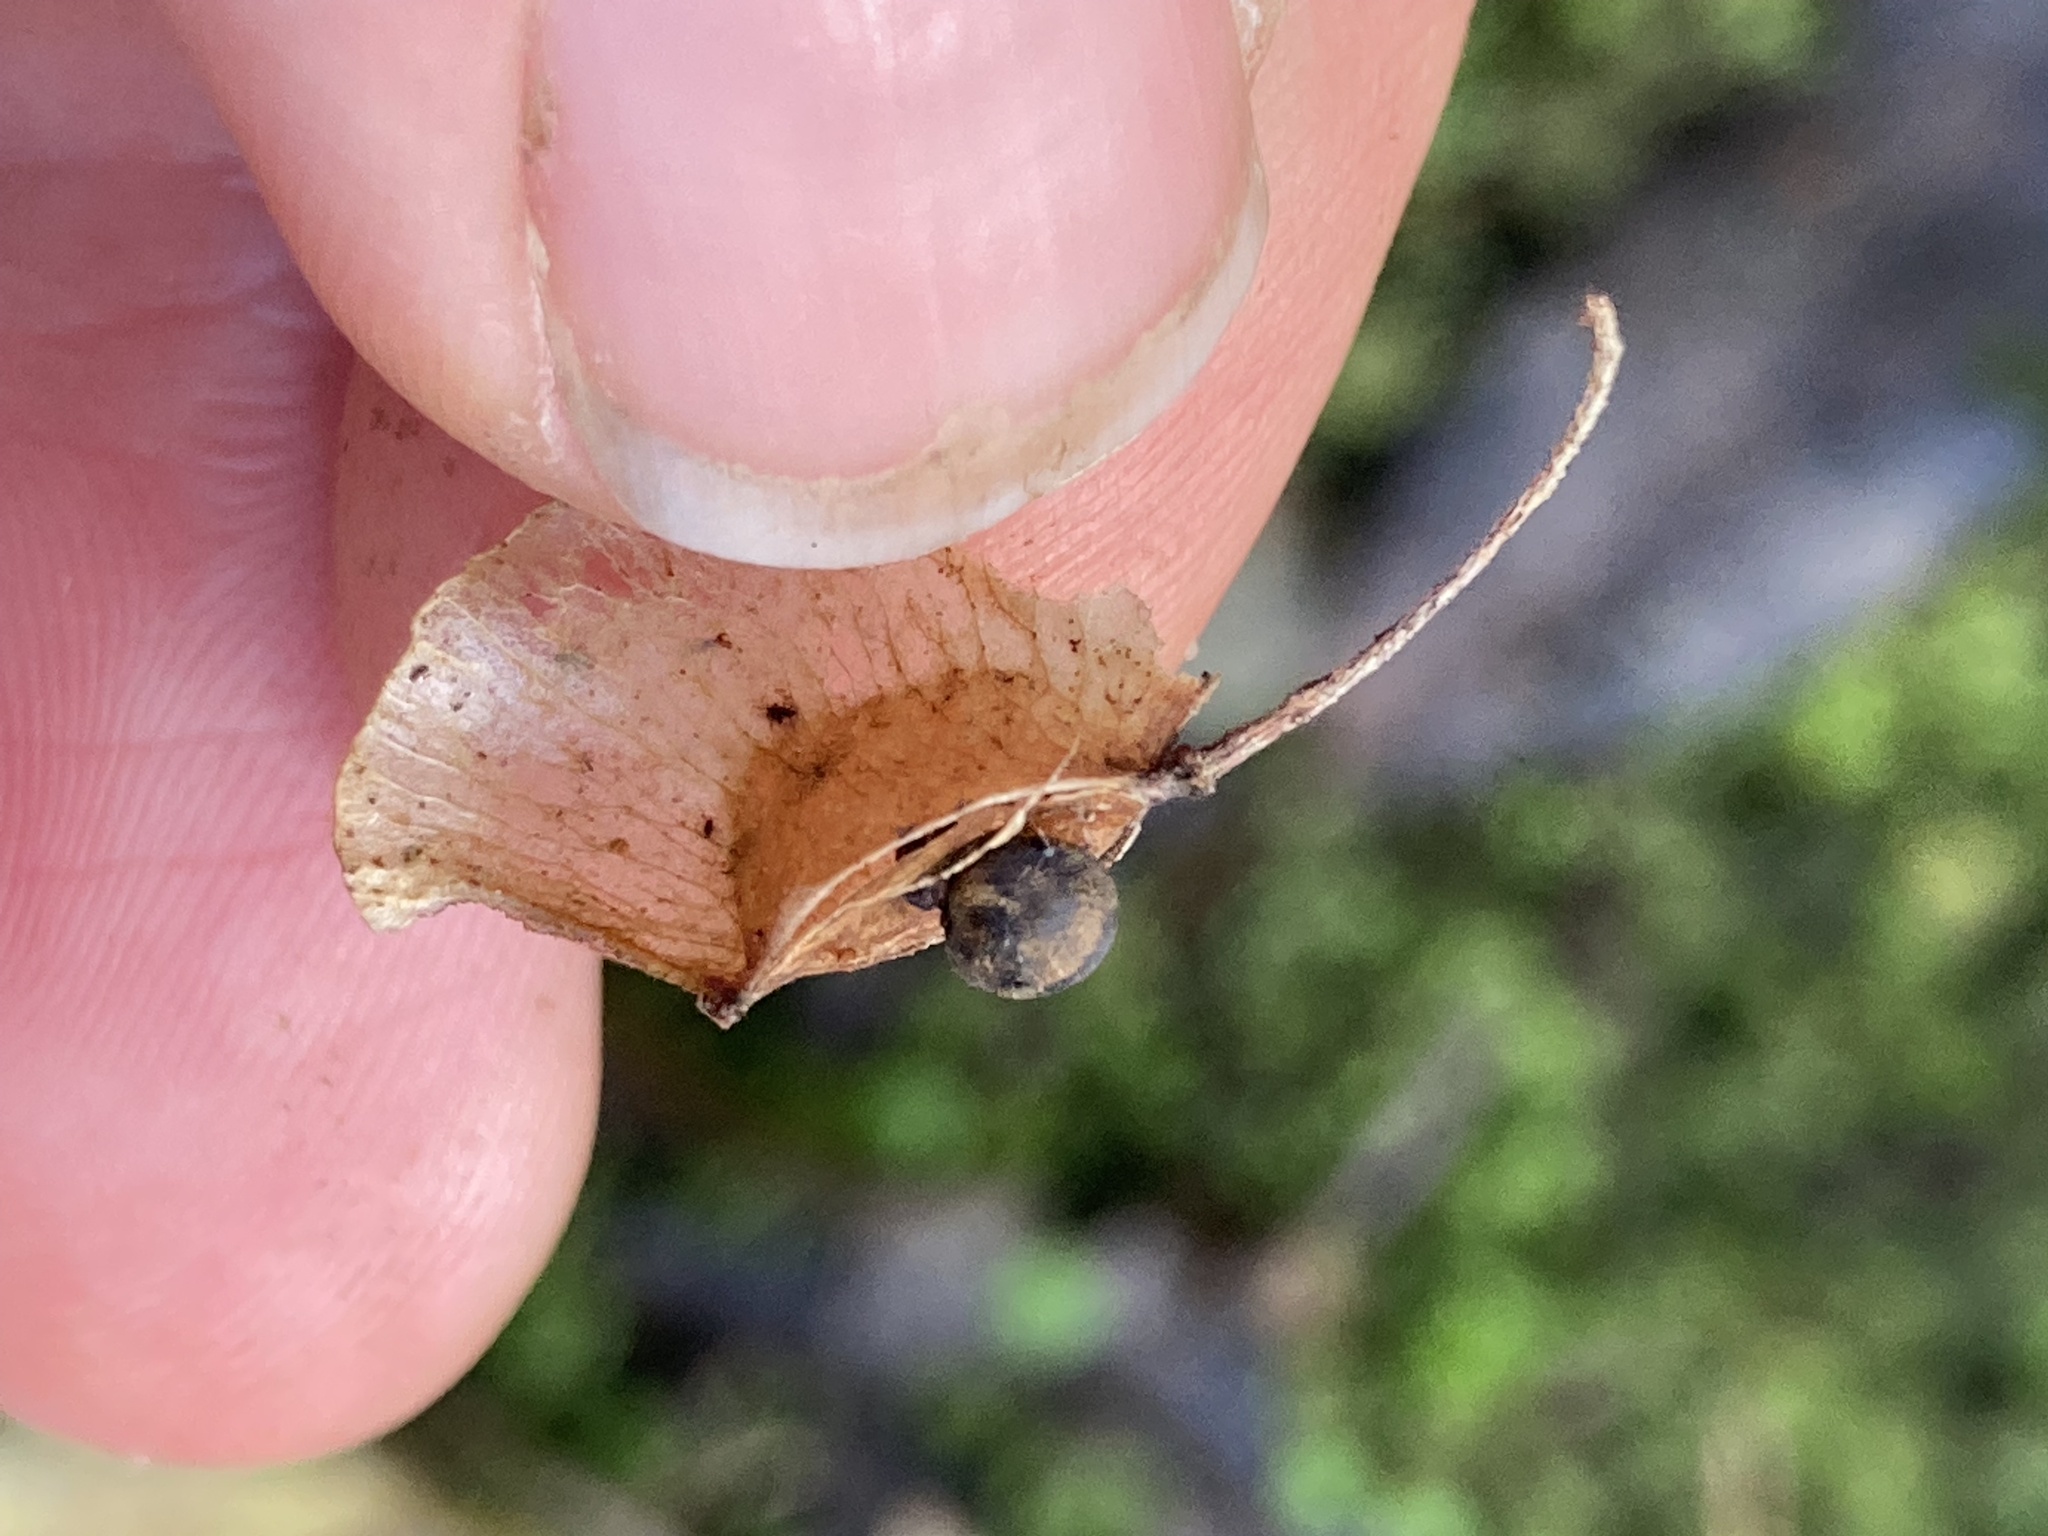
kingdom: Plantae
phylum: Tracheophyta
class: Magnoliopsida
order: Sapindales
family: Sapindaceae
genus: Dodonaea
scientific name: Dodonaea viscosa
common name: Hopbush
